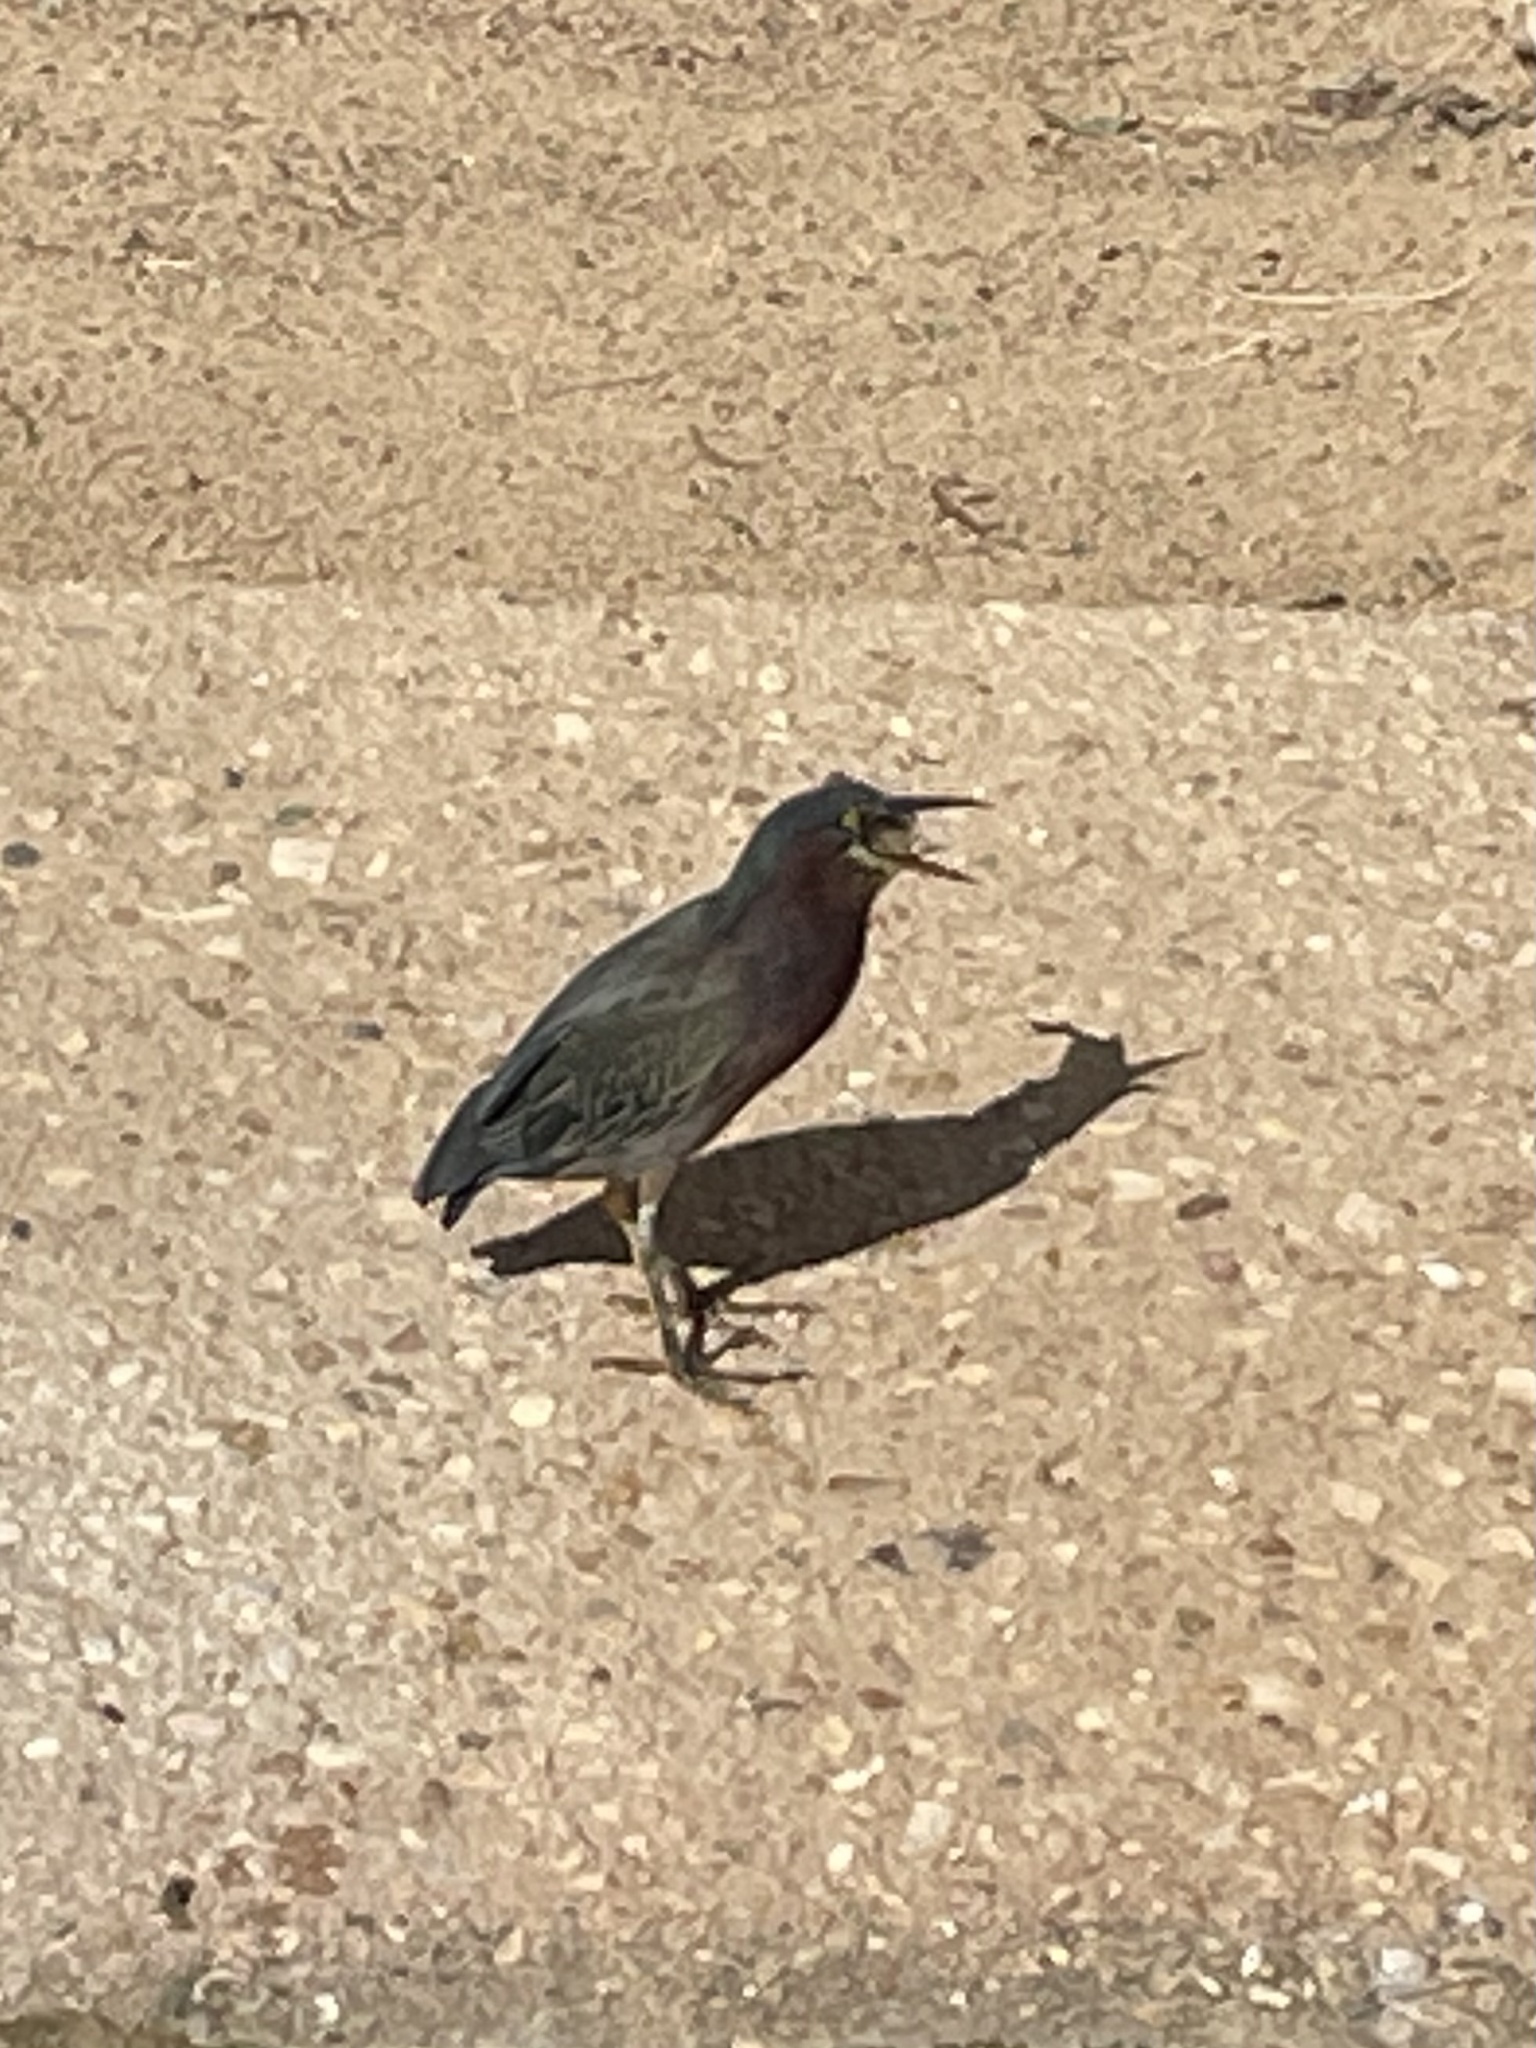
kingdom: Animalia
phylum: Chordata
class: Aves
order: Pelecaniformes
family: Ardeidae
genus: Butorides
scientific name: Butorides virescens
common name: Green heron
